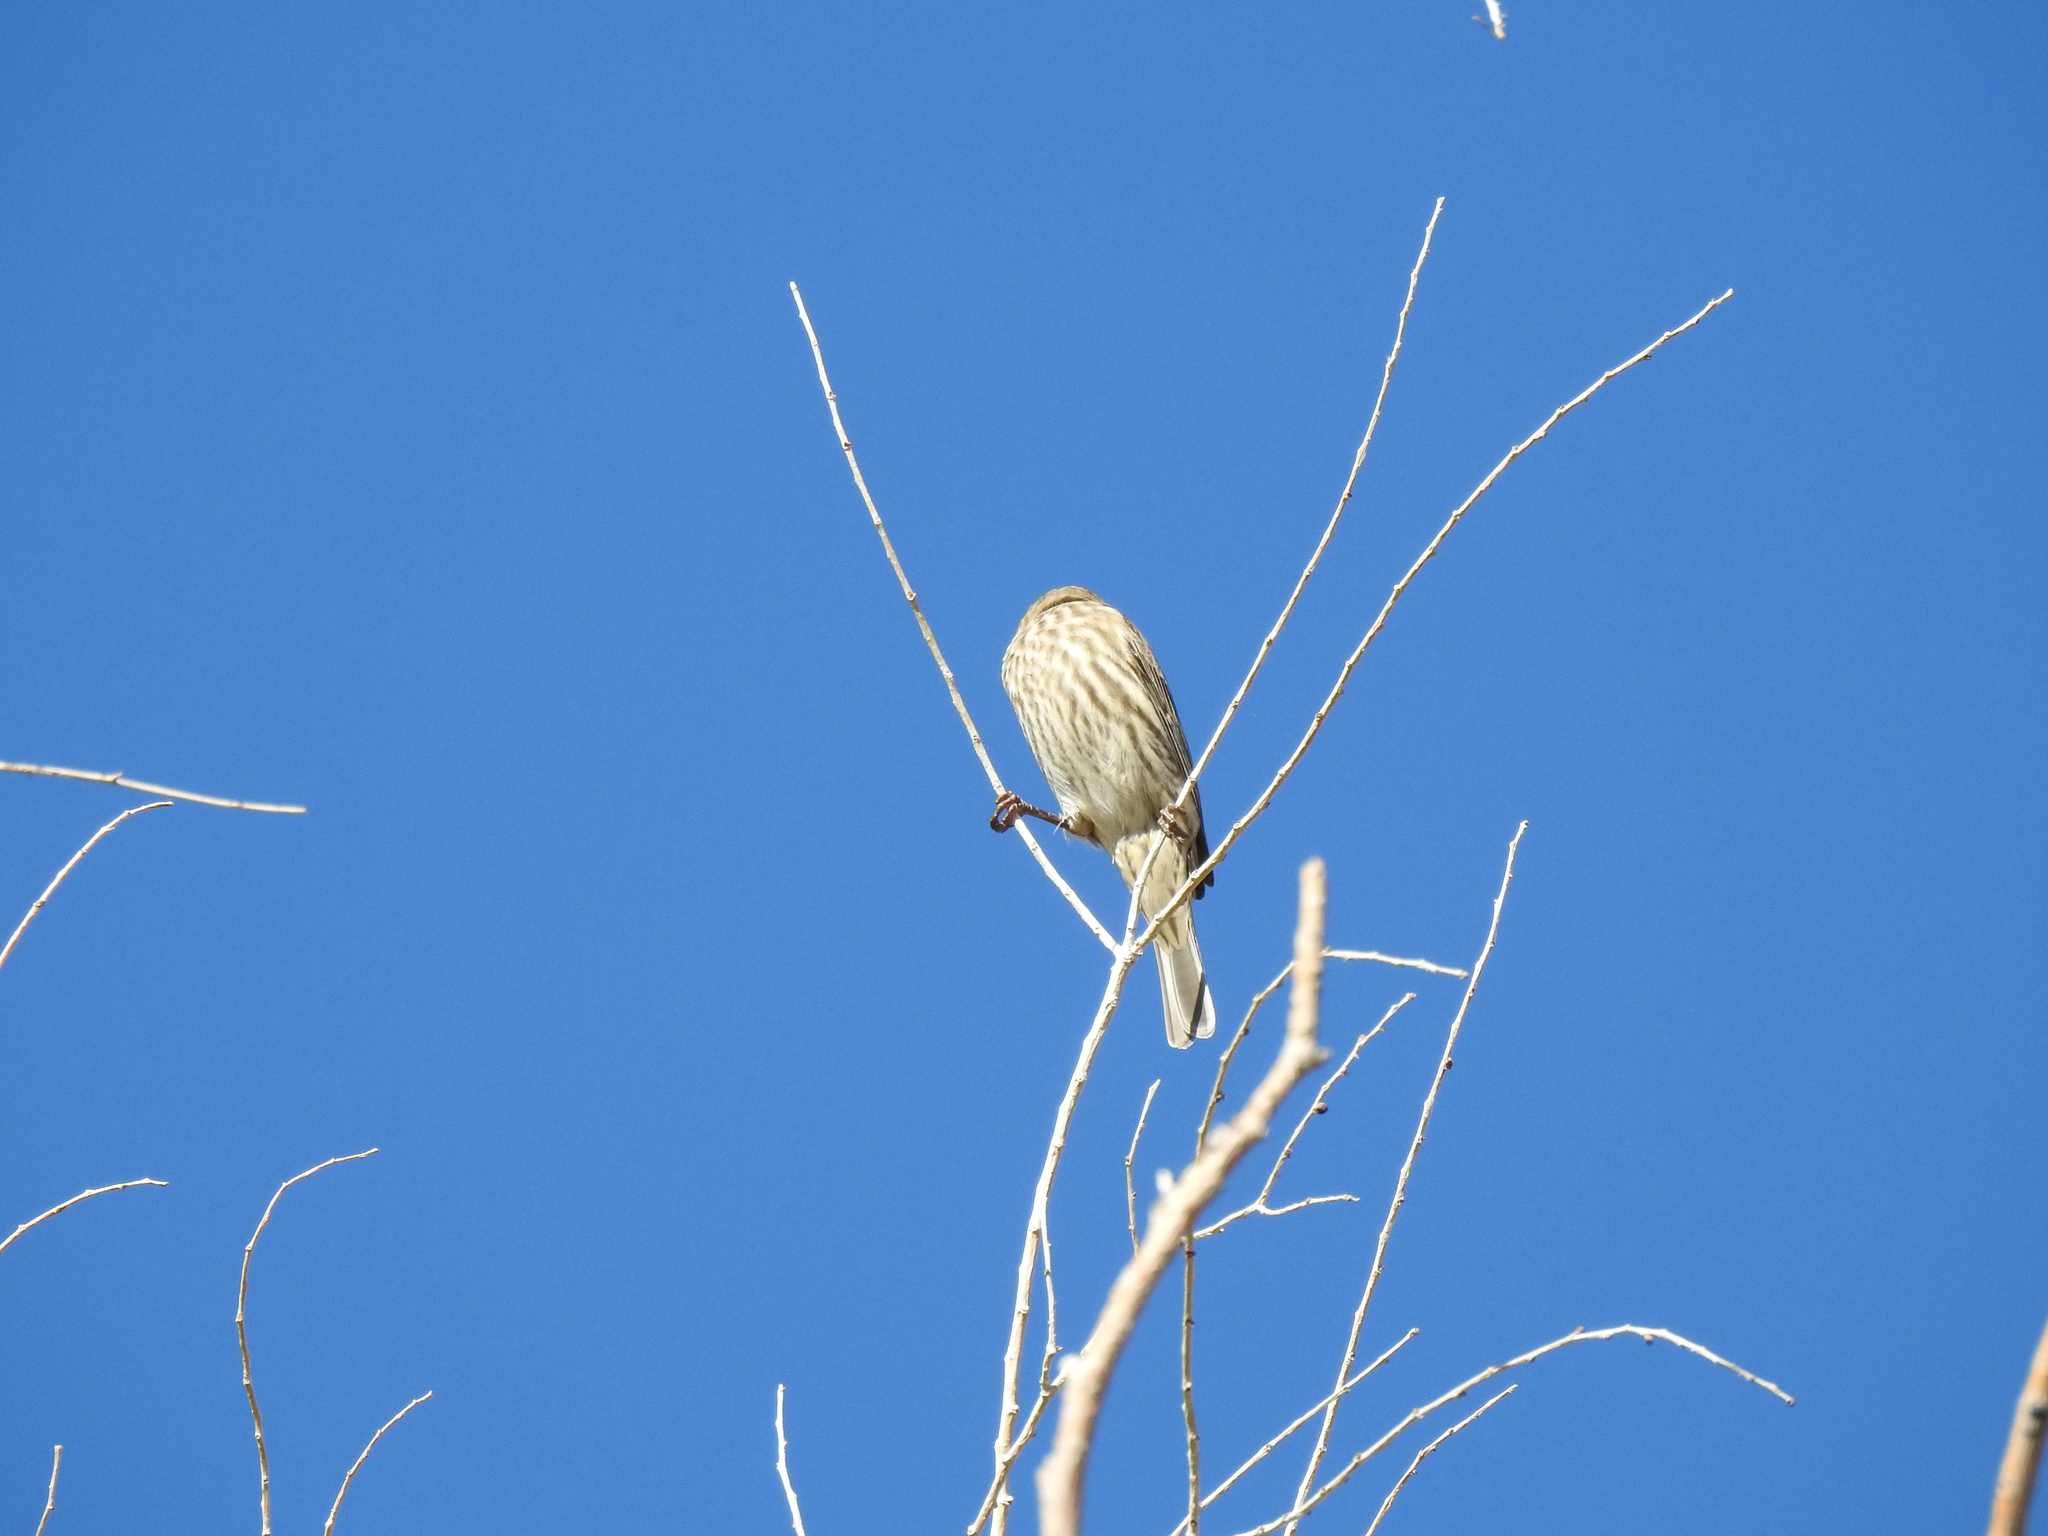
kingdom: Animalia
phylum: Chordata
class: Aves
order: Passeriformes
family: Fringillidae
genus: Haemorhous
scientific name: Haemorhous mexicanus
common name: House finch
